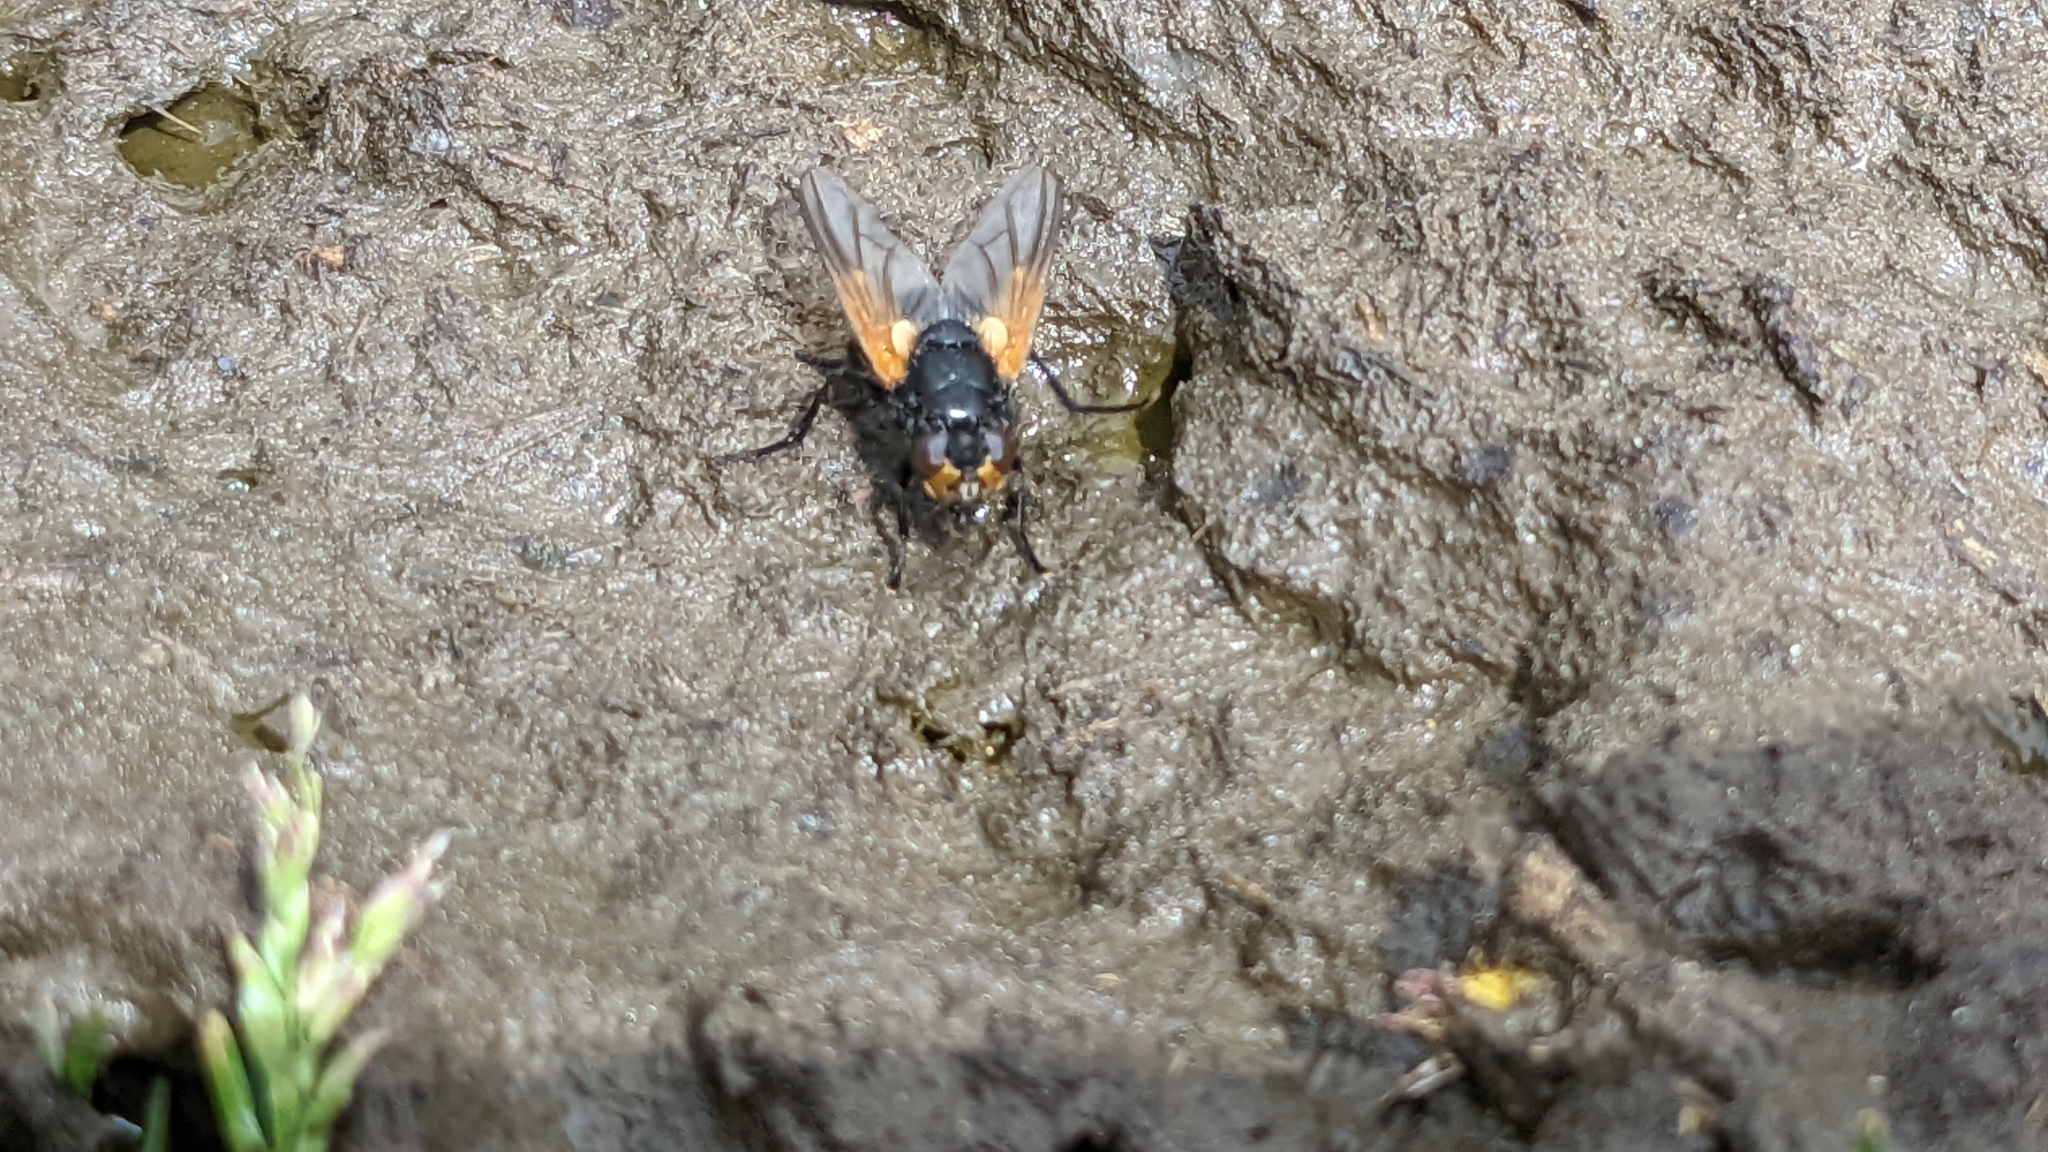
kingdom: Animalia
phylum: Arthropoda
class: Insecta
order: Diptera
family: Muscidae
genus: Mesembrina
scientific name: Mesembrina meridiana
